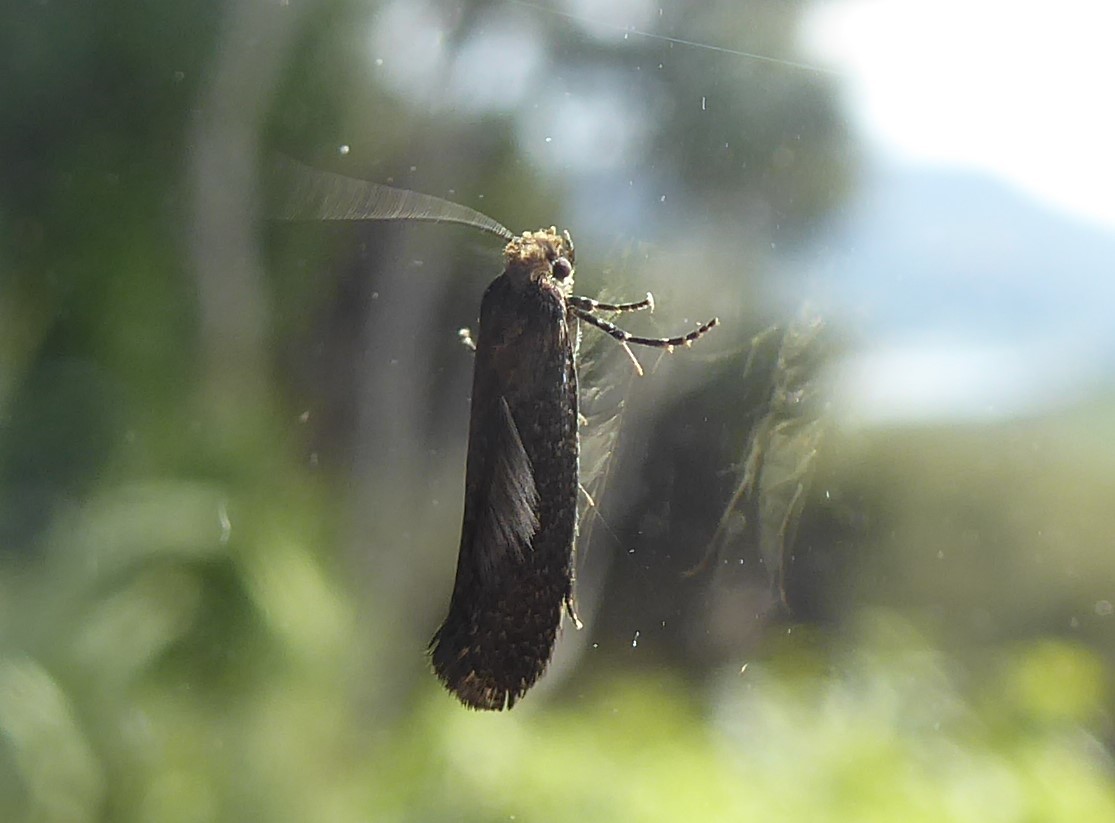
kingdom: Animalia
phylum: Arthropoda
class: Insecta
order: Lepidoptera
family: Tineidae
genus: Monopis
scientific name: Monopis ornithias
